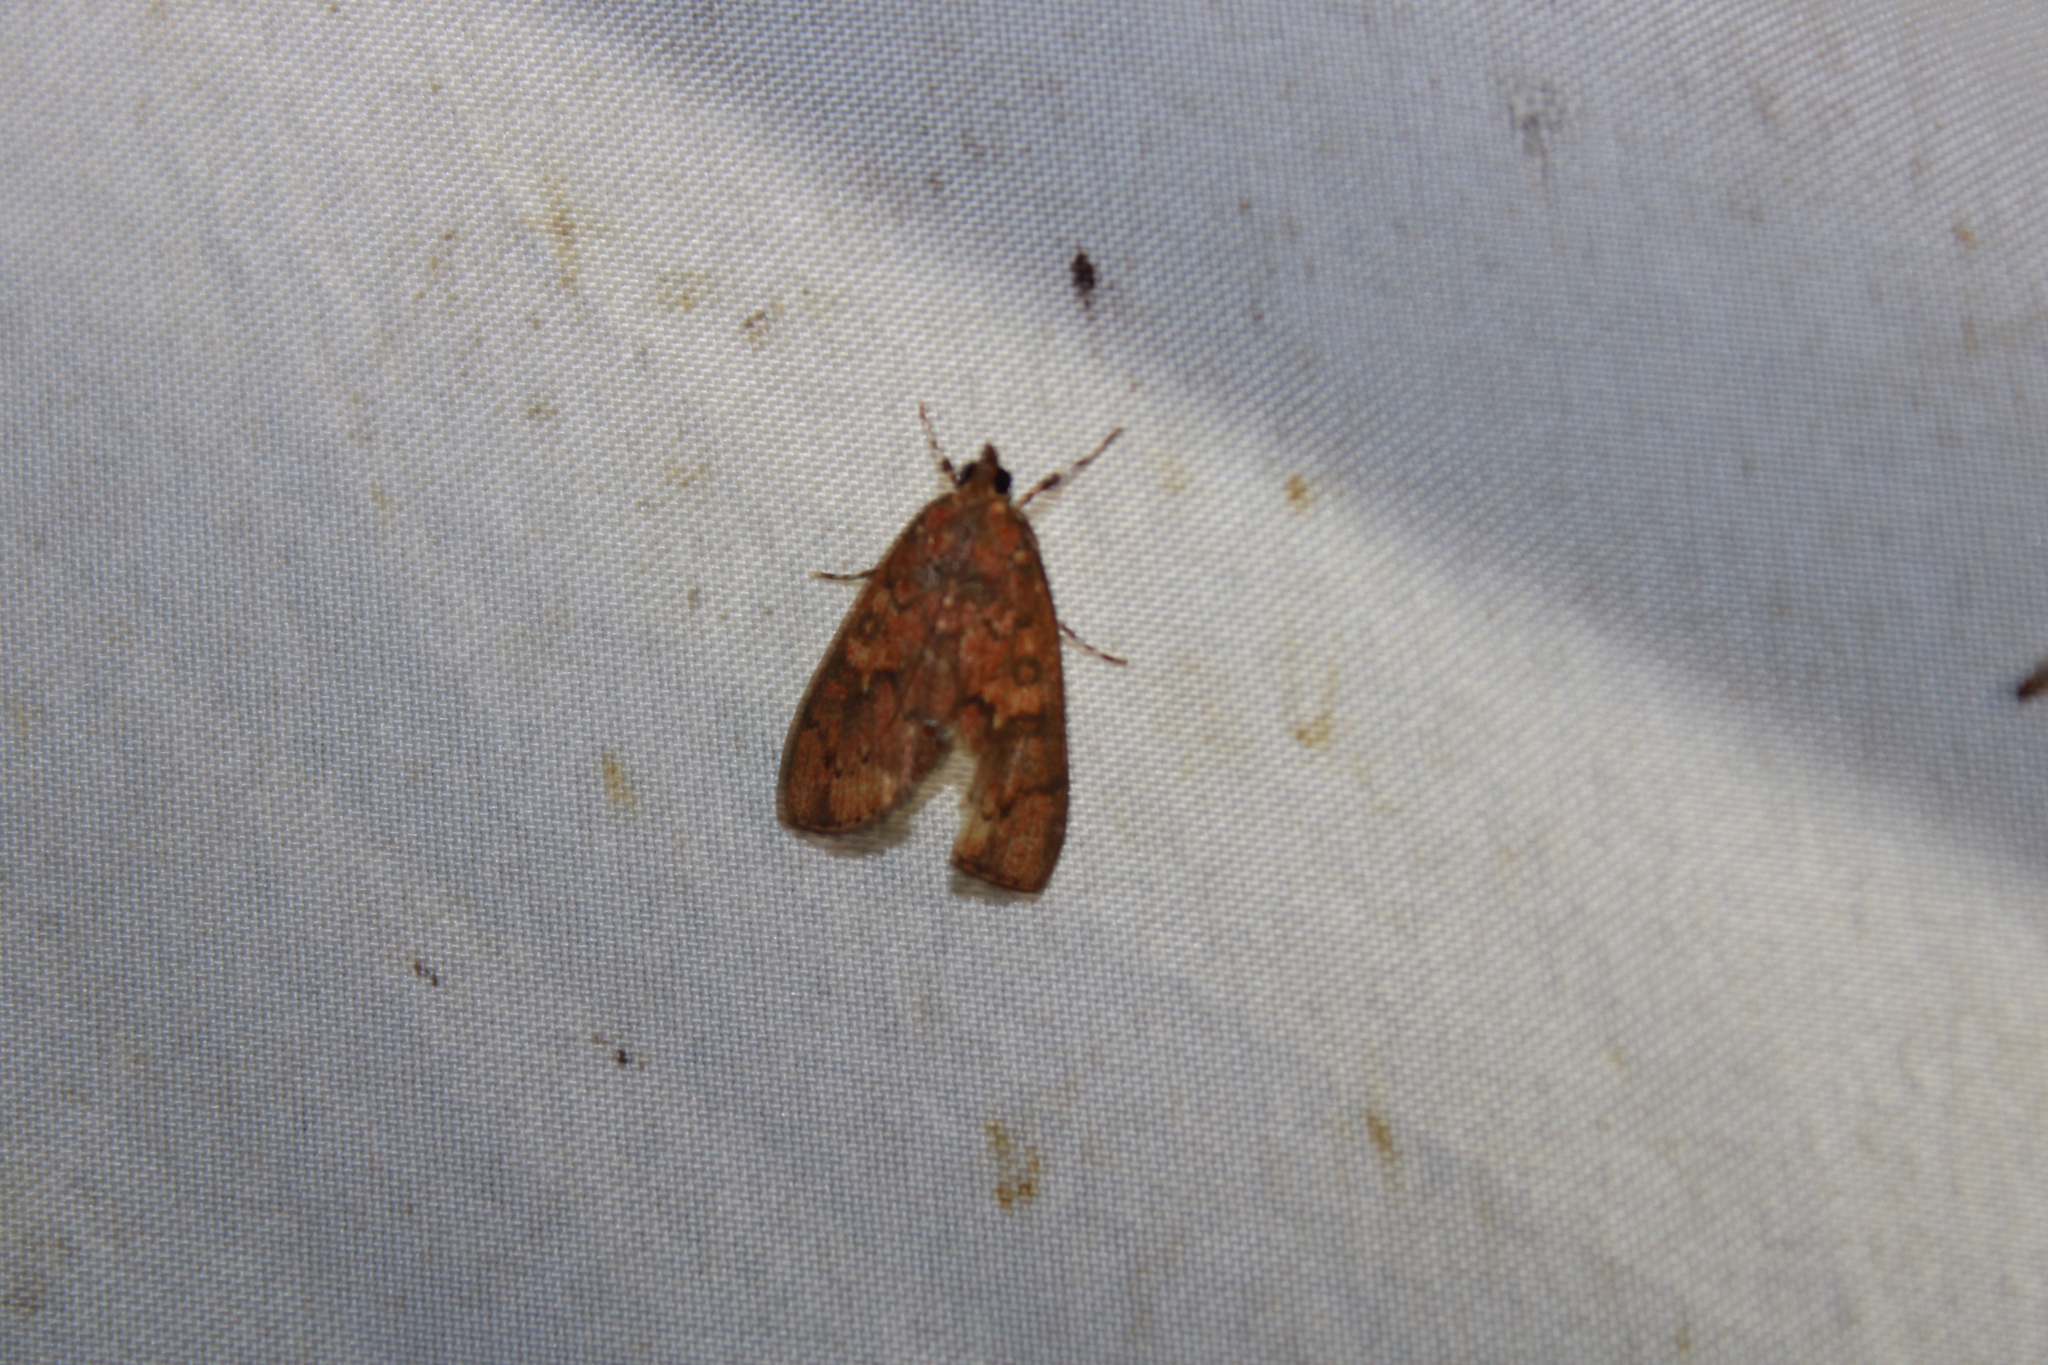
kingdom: Animalia
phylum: Arthropoda
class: Insecta
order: Lepidoptera
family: Crambidae
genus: Mimophobetron
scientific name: Mimophobetron pyropsalis
